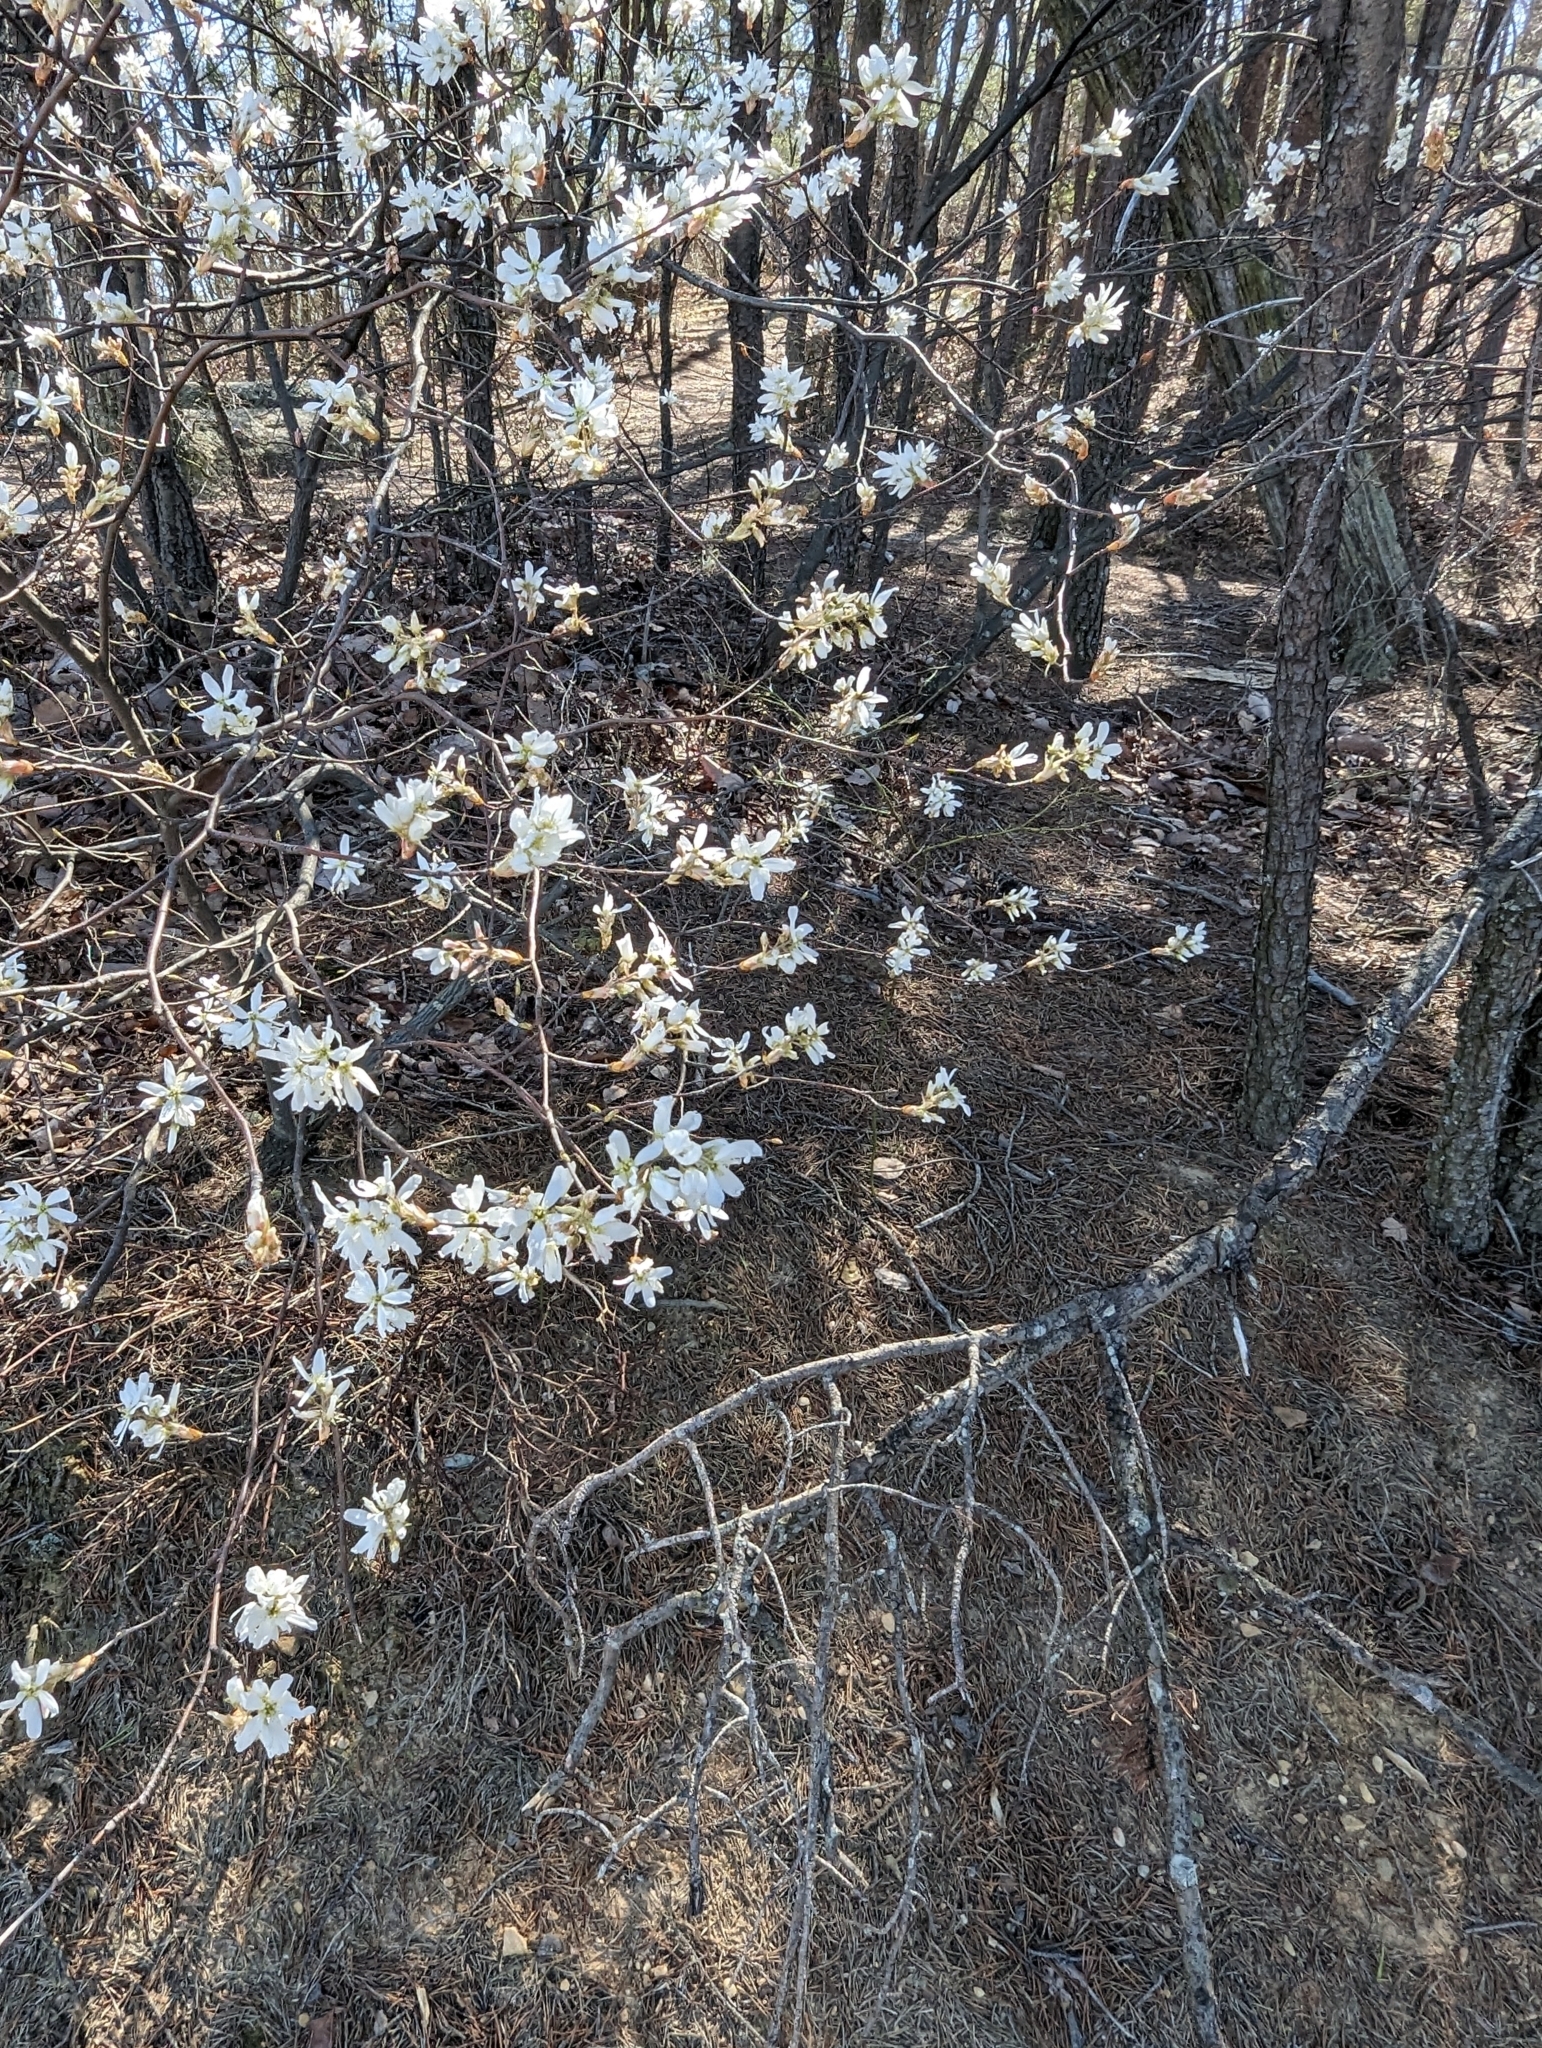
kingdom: Plantae
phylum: Tracheophyta
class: Magnoliopsida
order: Rosales
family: Rosaceae
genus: Amelanchier
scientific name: Amelanchier arborea
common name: Downy serviceberry
